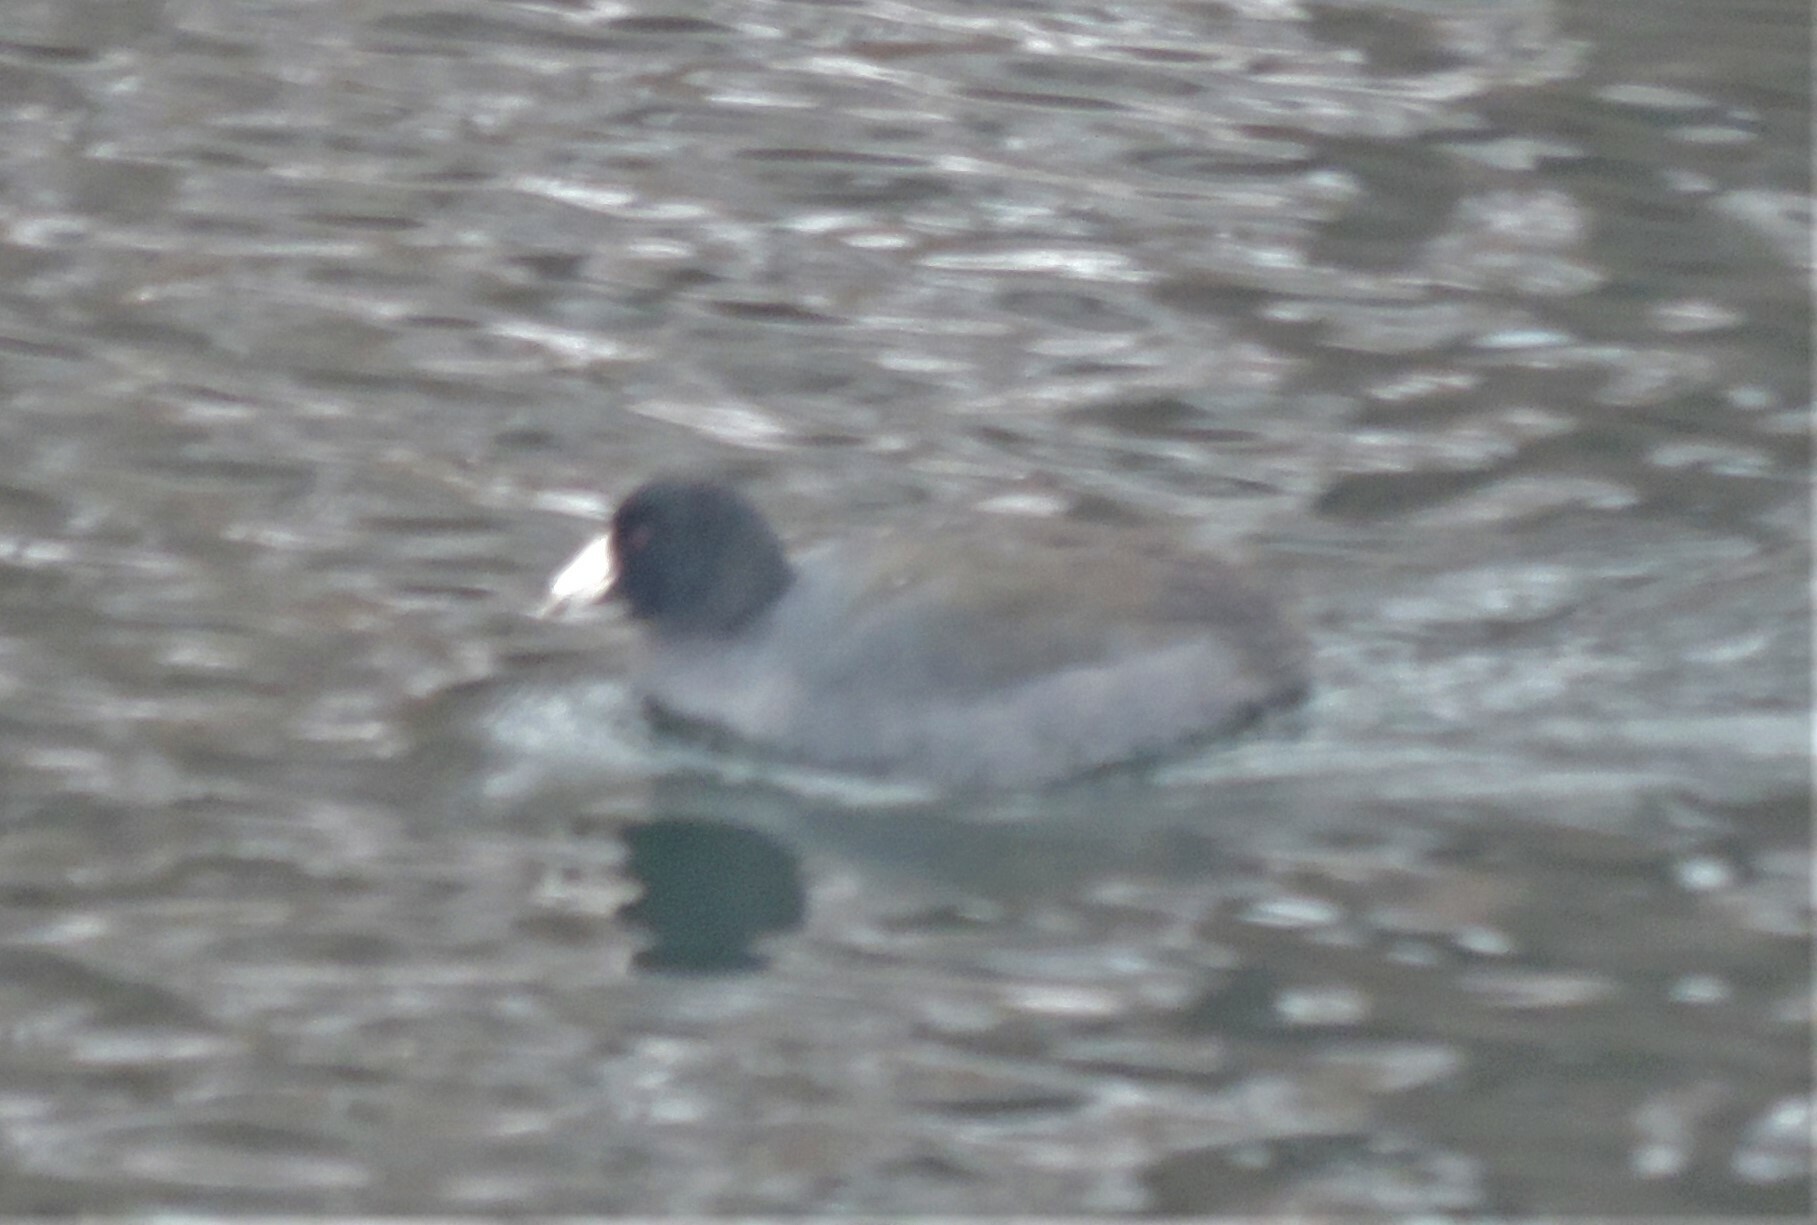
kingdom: Animalia
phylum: Chordata
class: Aves
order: Gruiformes
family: Rallidae
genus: Fulica
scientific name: Fulica americana
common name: American coot
